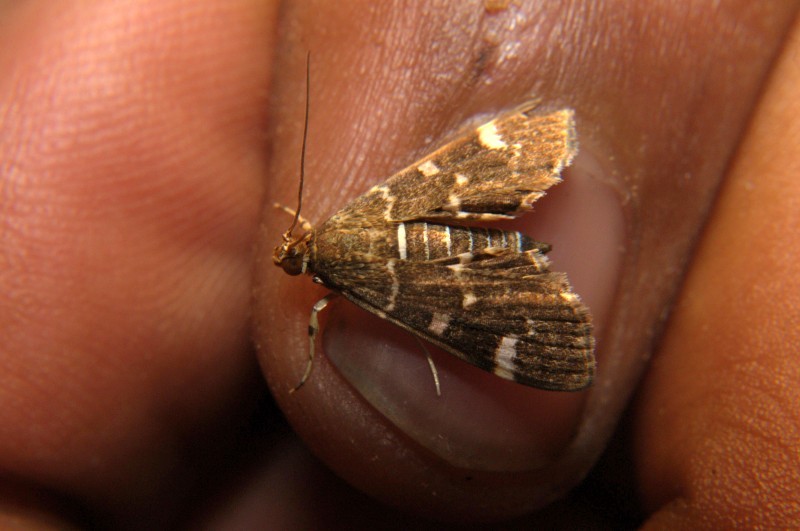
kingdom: Animalia
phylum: Arthropoda
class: Insecta
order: Lepidoptera
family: Crambidae
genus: Hymenia
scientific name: Hymenia perspectalis
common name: Spotted beet webworm
